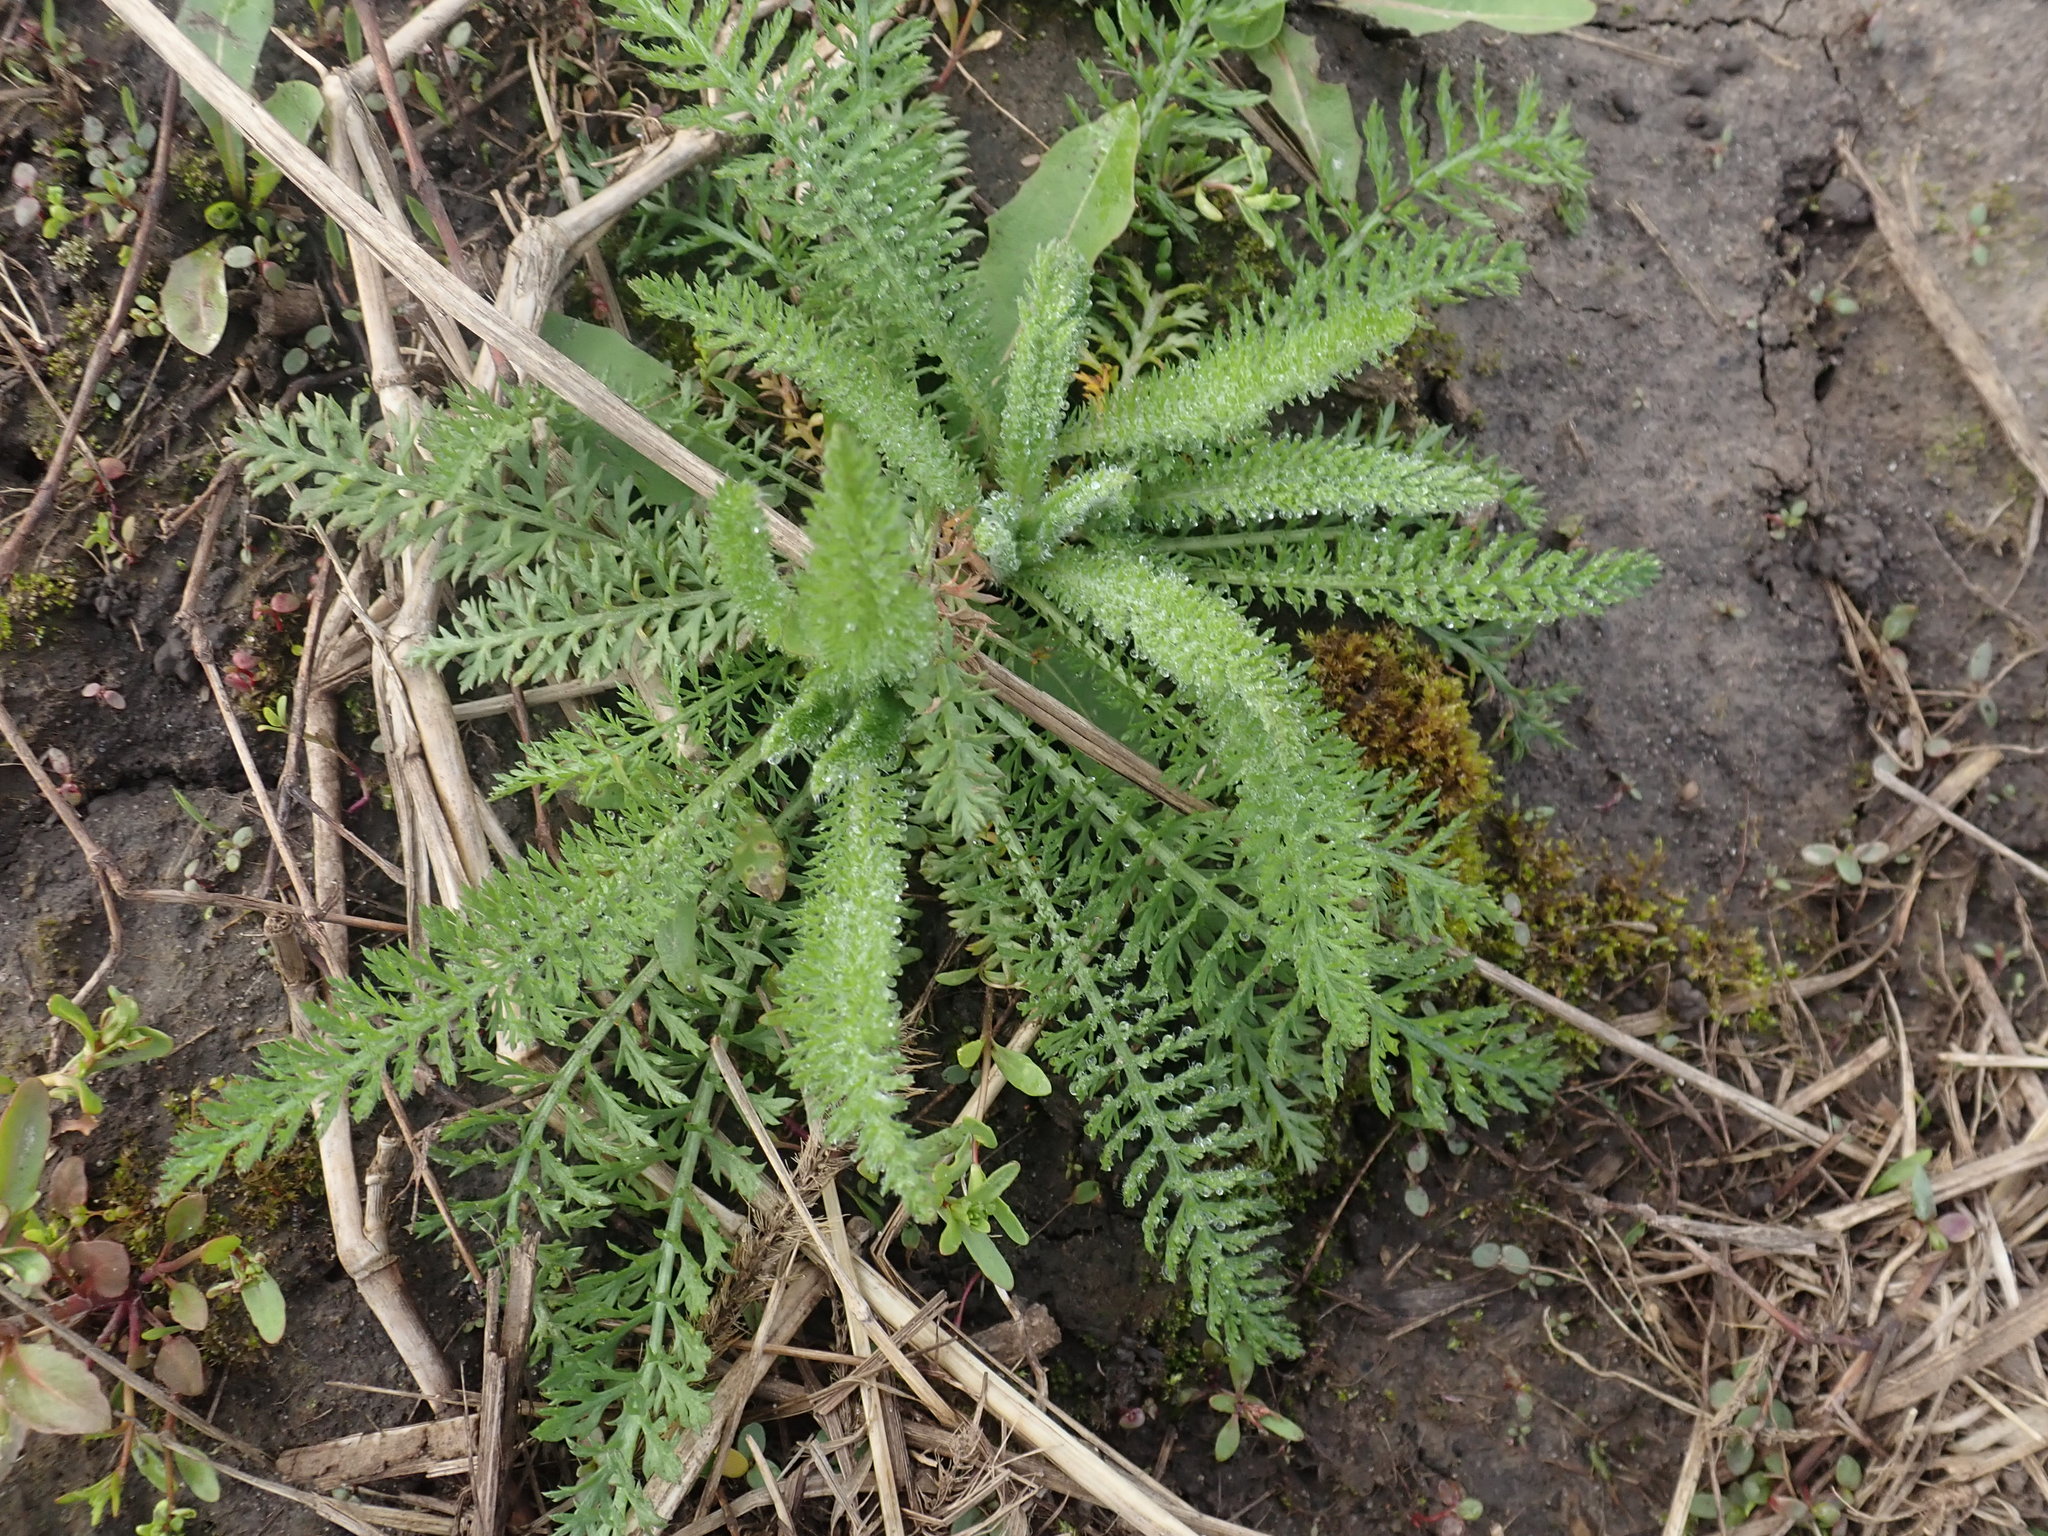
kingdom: Plantae
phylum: Tracheophyta
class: Magnoliopsida
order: Asterales
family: Asteraceae
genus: Achillea
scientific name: Achillea millefolium
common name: Yarrow
